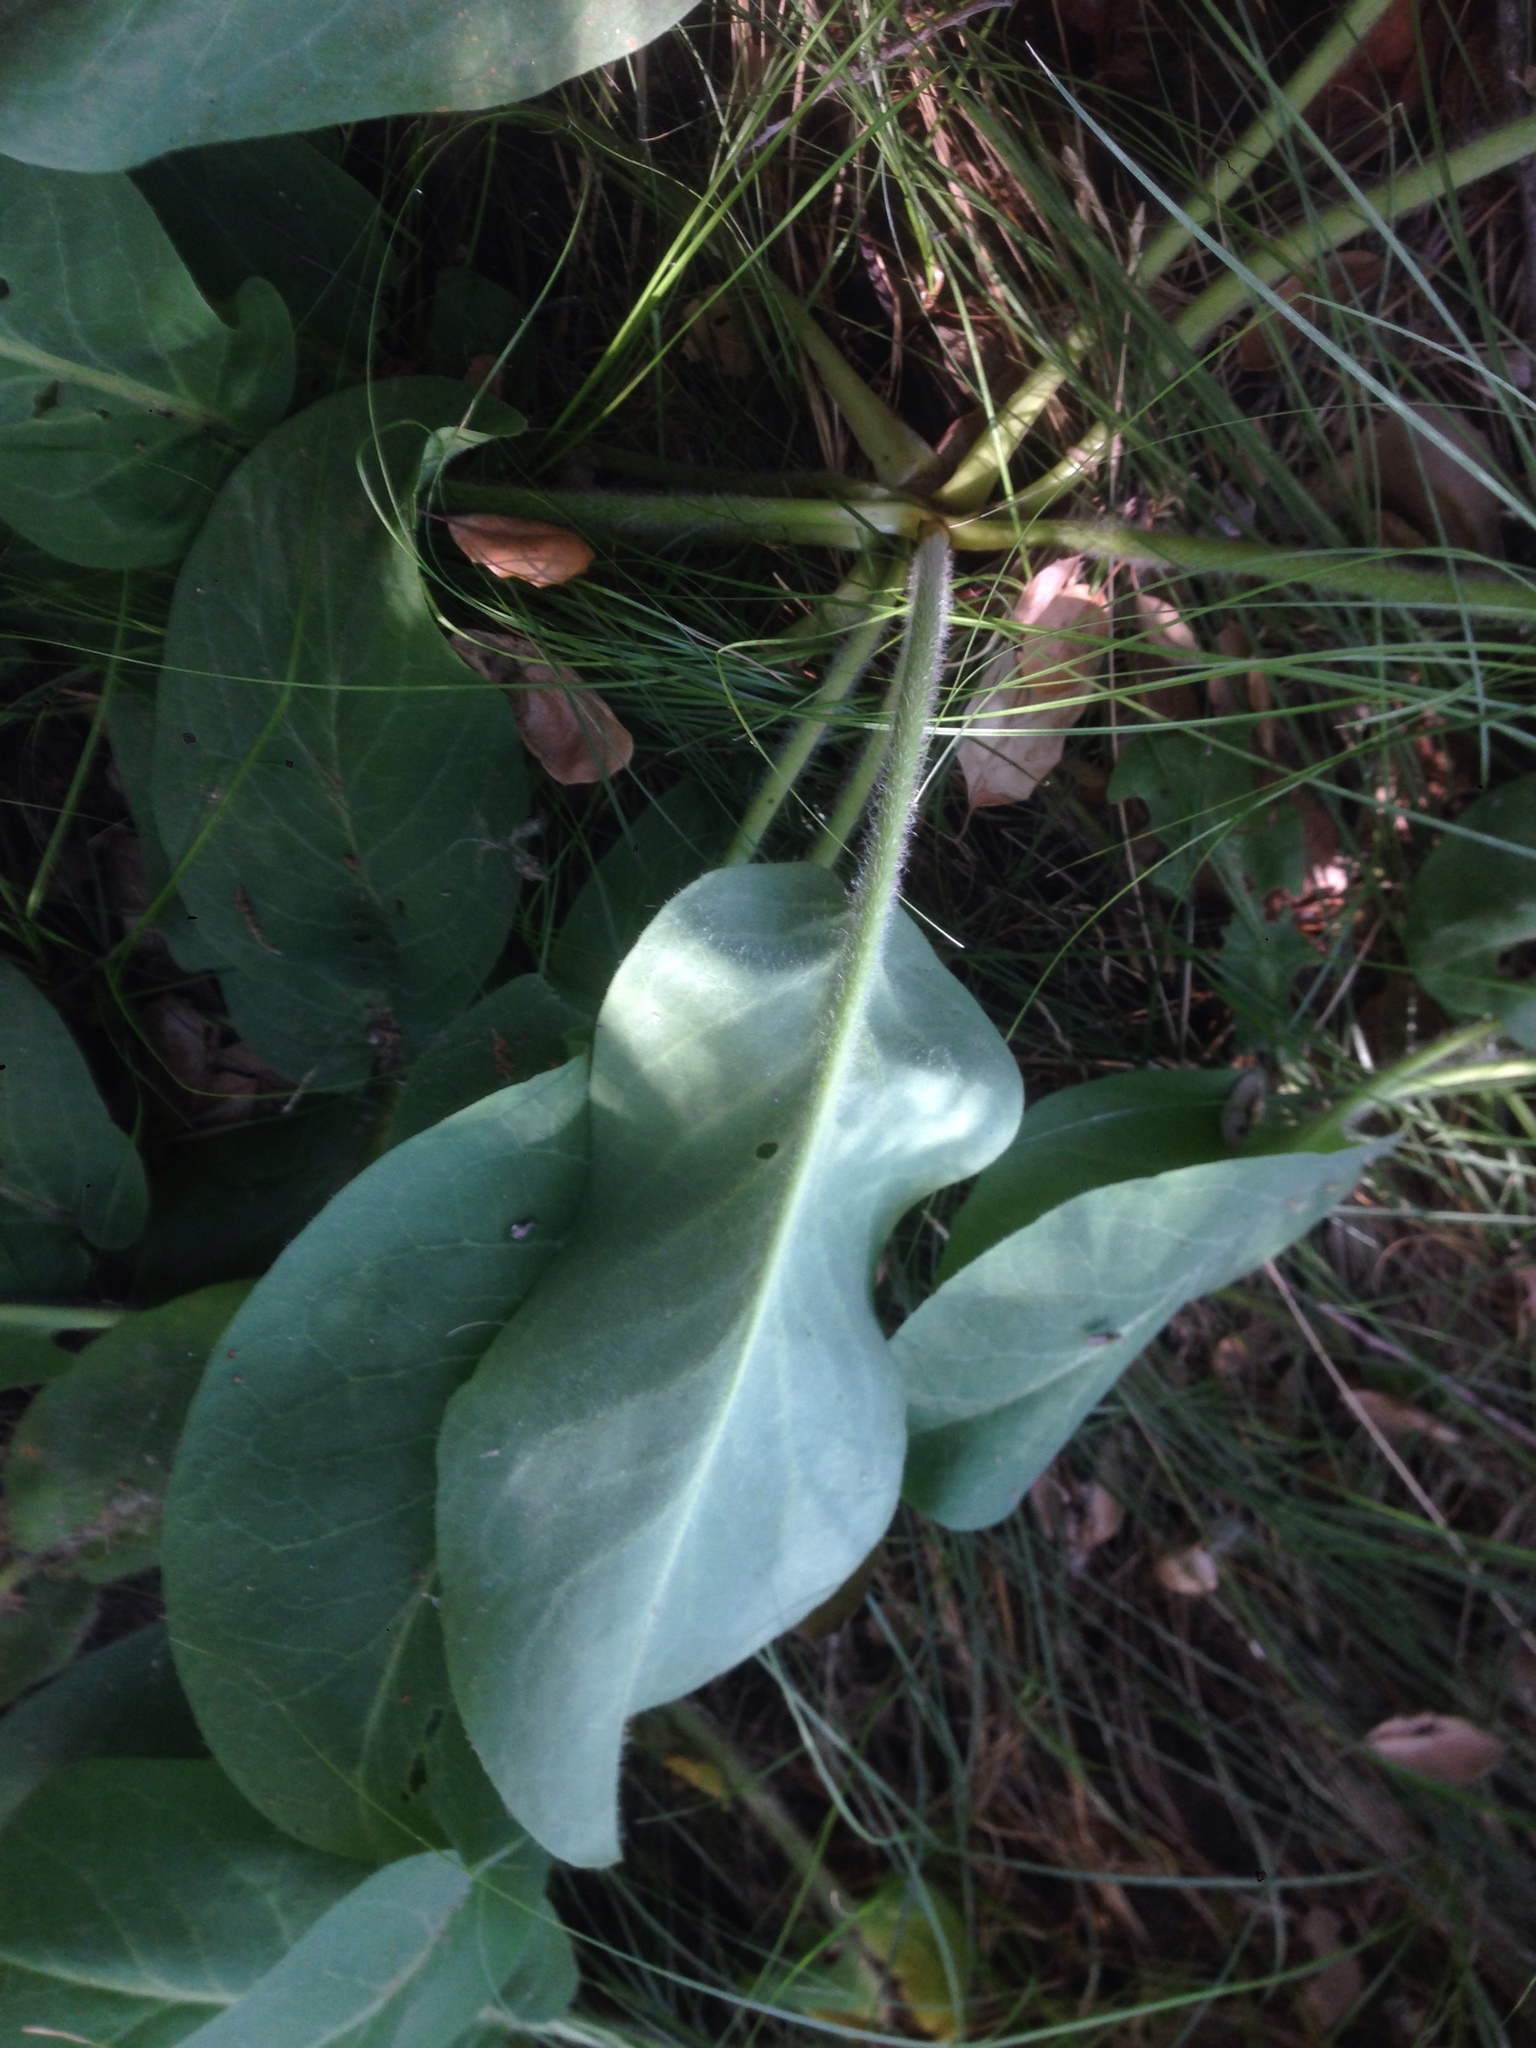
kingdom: Plantae
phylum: Tracheophyta
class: Magnoliopsida
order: Piperales
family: Saururaceae
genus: Anemopsis
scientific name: Anemopsis californica
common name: Apache-beads
